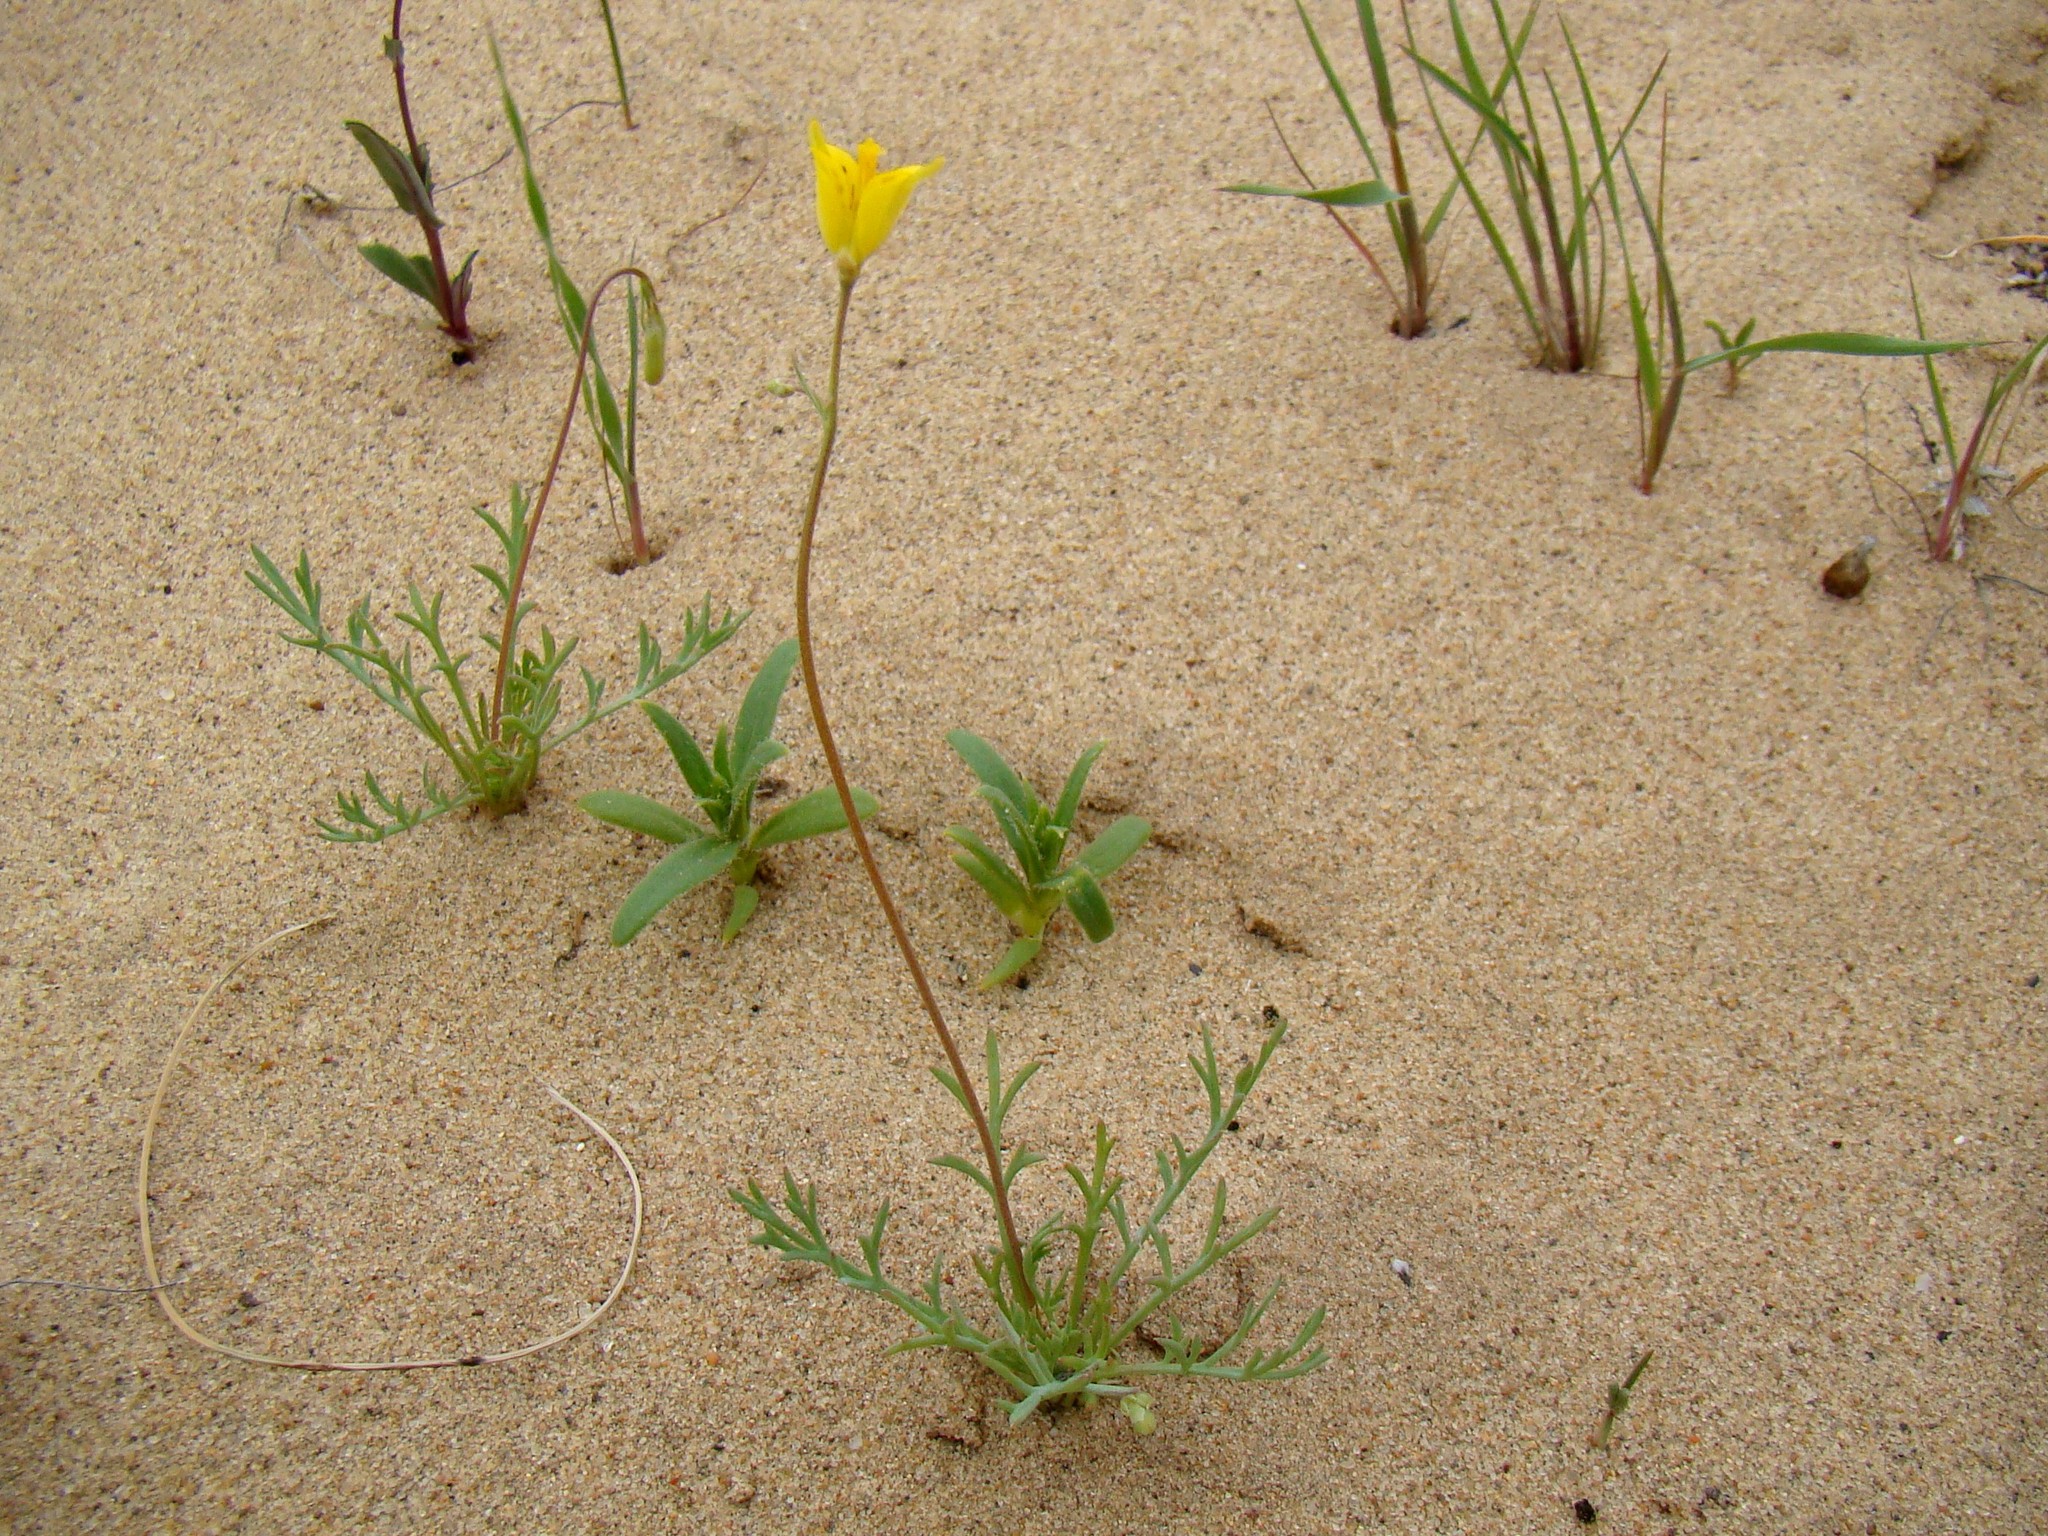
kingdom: Plantae
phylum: Tracheophyta
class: Magnoliopsida
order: Ranunculales
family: Papaveraceae
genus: Hypecoum
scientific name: Hypecoum pendulum
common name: Nodding hypecoum
